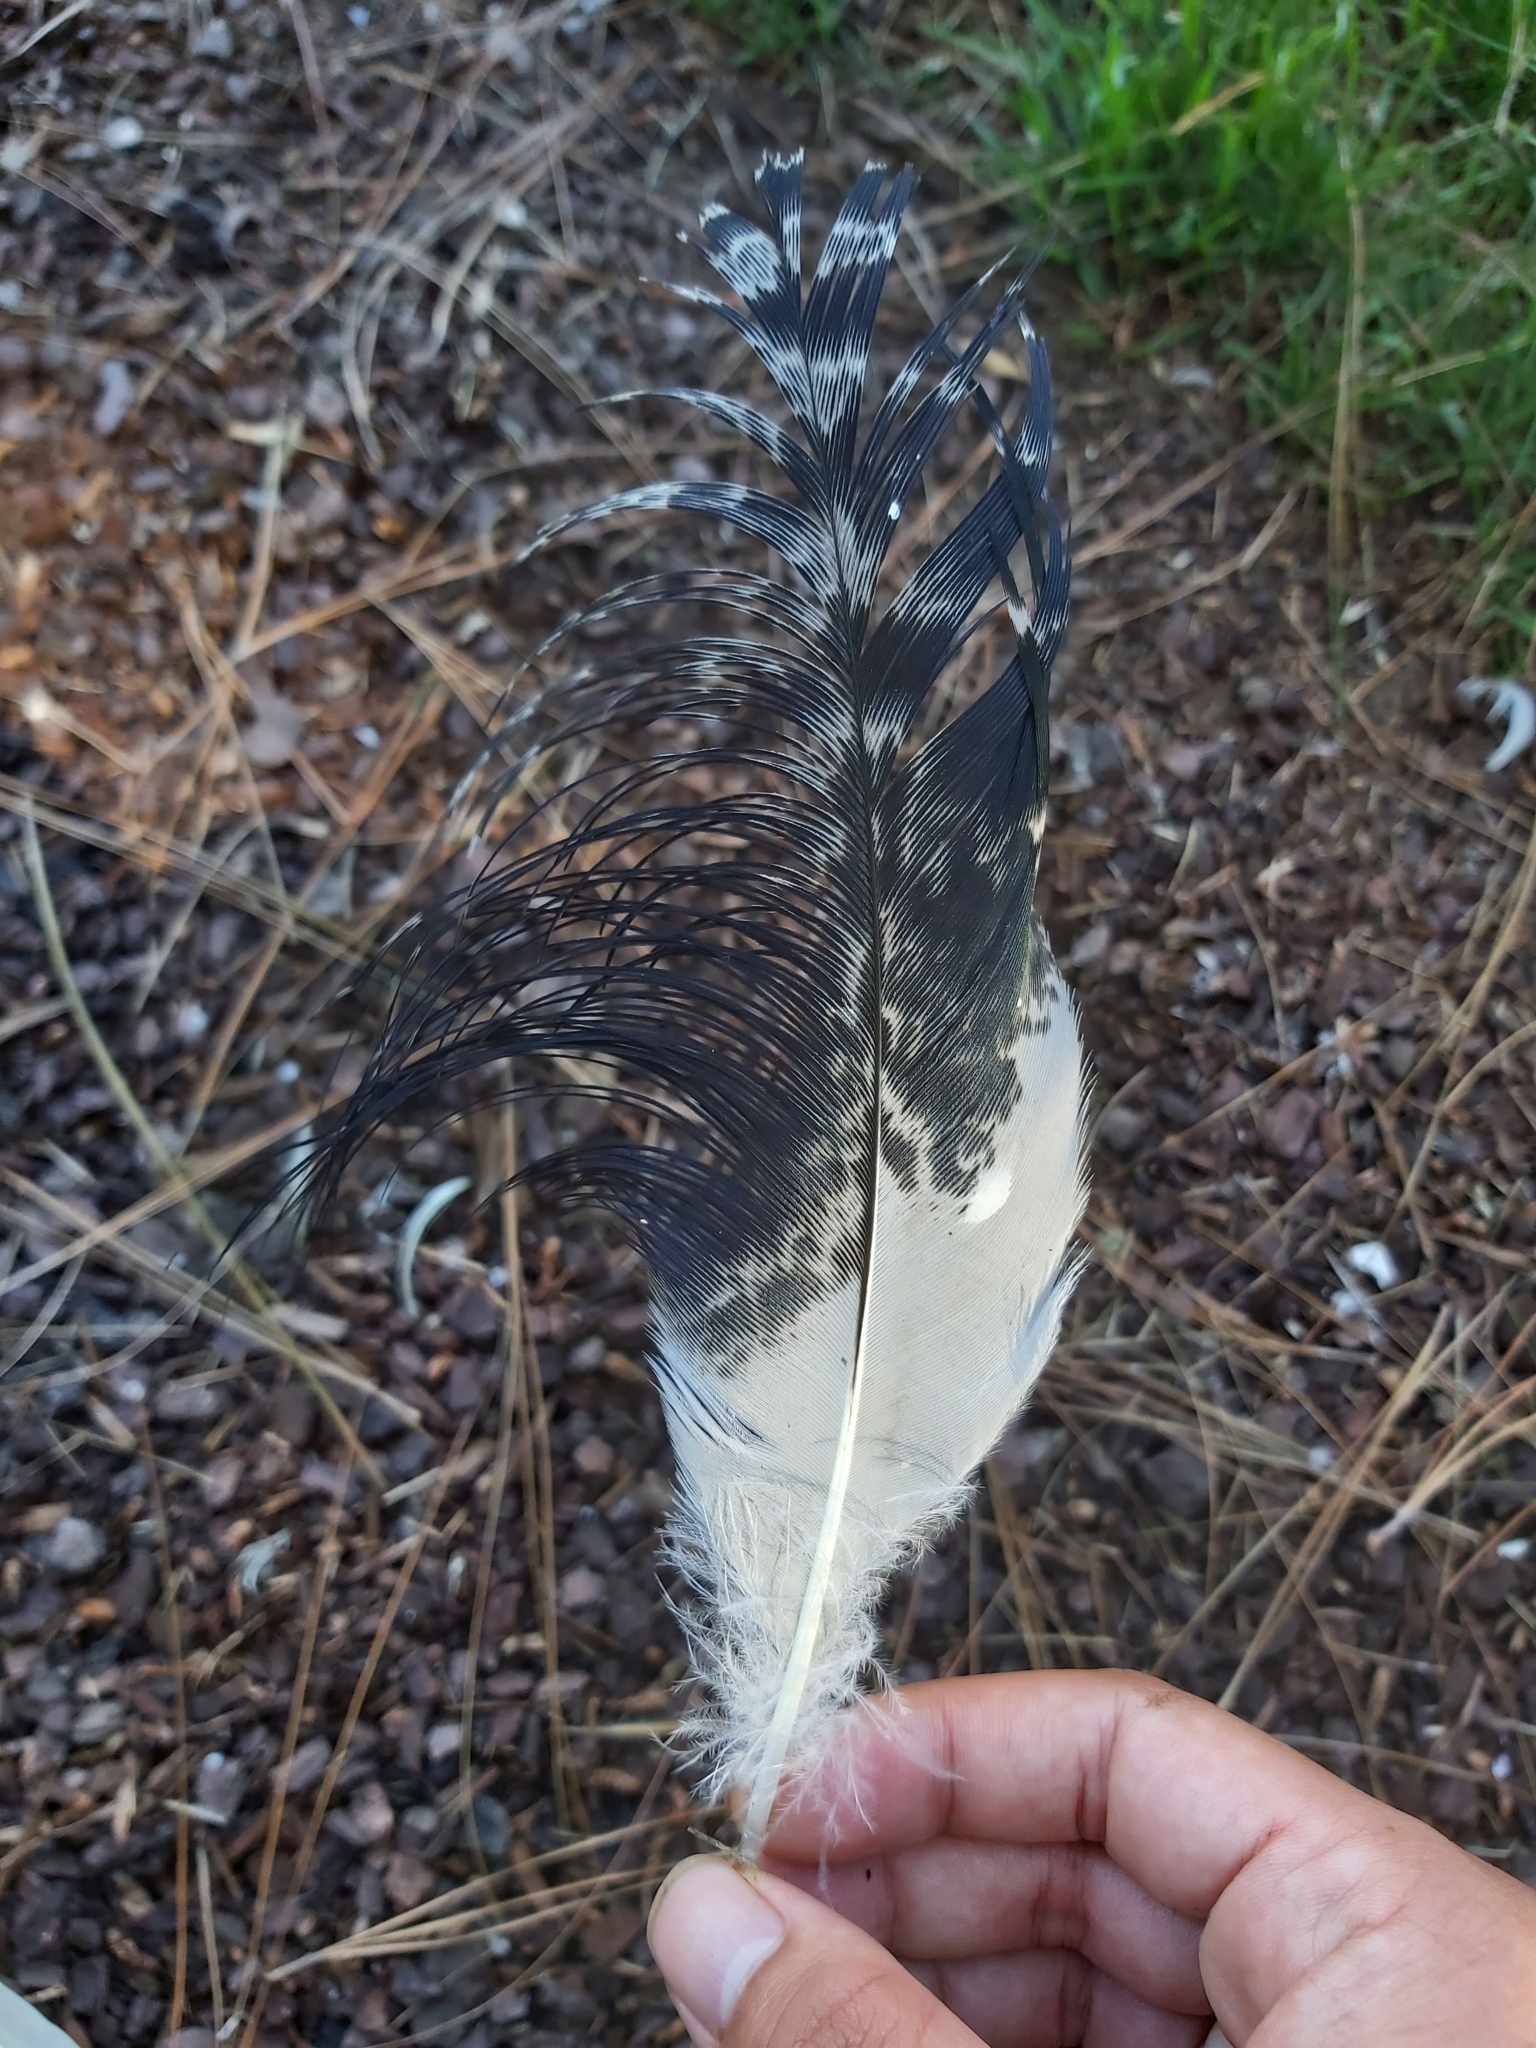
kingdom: Animalia
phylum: Chordata
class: Aves
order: Pelecaniformes
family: Threskiornithidae
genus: Threskiornis
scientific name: Threskiornis molucca
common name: Australian white ibis
